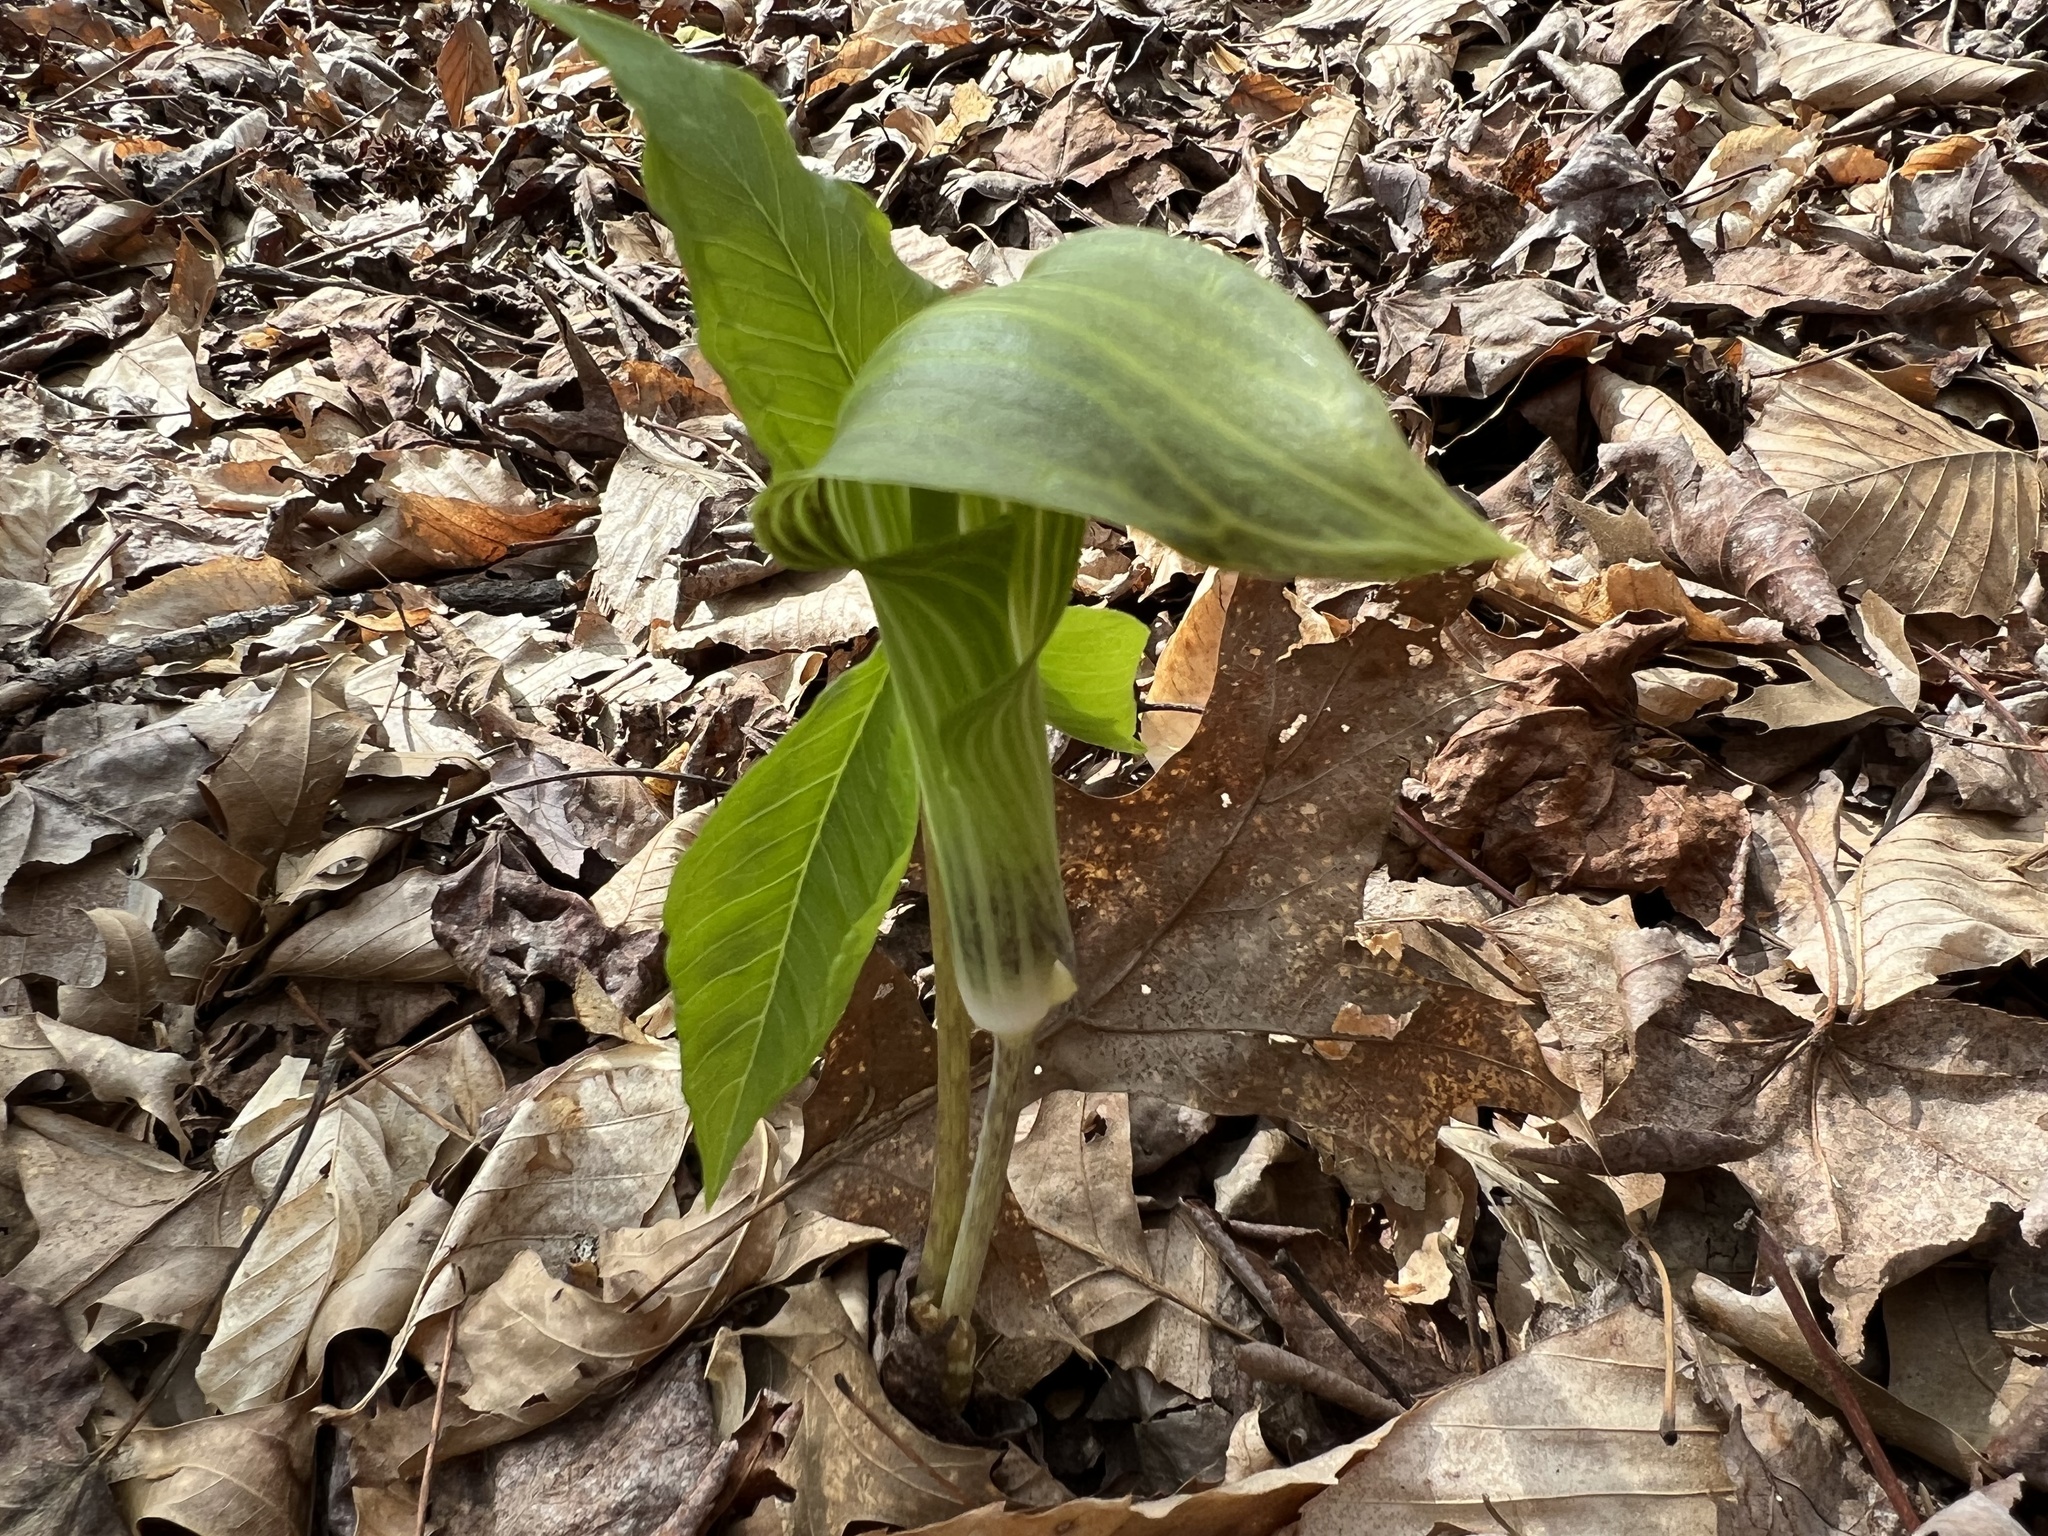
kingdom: Plantae
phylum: Tracheophyta
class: Liliopsida
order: Alismatales
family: Araceae
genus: Arisaema
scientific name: Arisaema triphyllum
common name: Jack-in-the-pulpit
